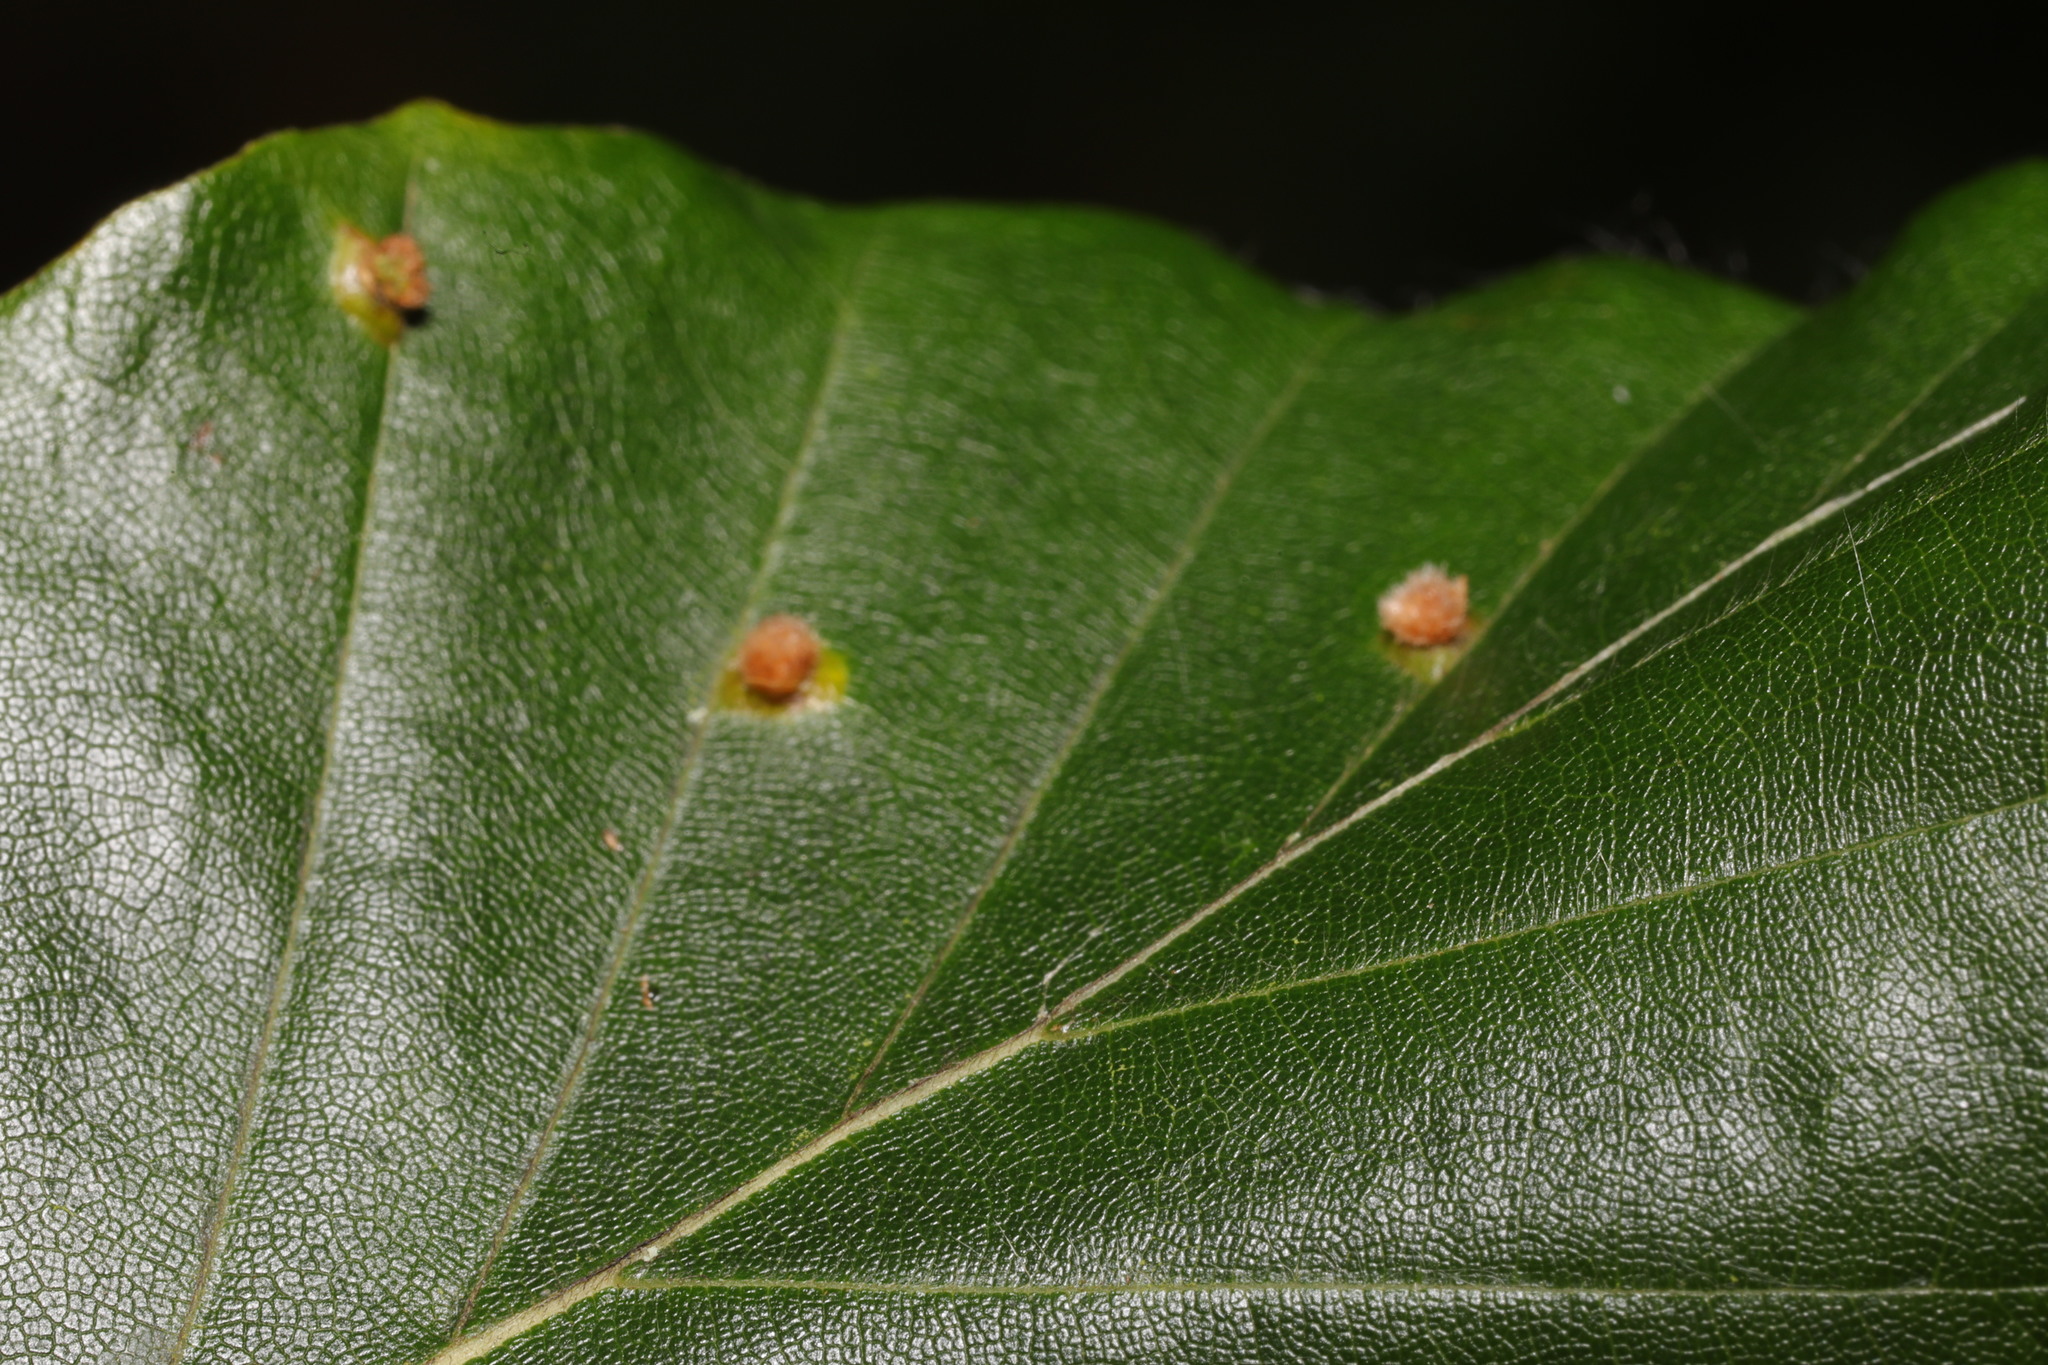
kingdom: Animalia
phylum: Arthropoda
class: Insecta
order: Diptera
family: Cecidomyiidae
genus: Hartigiola
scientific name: Hartigiola annulipes
